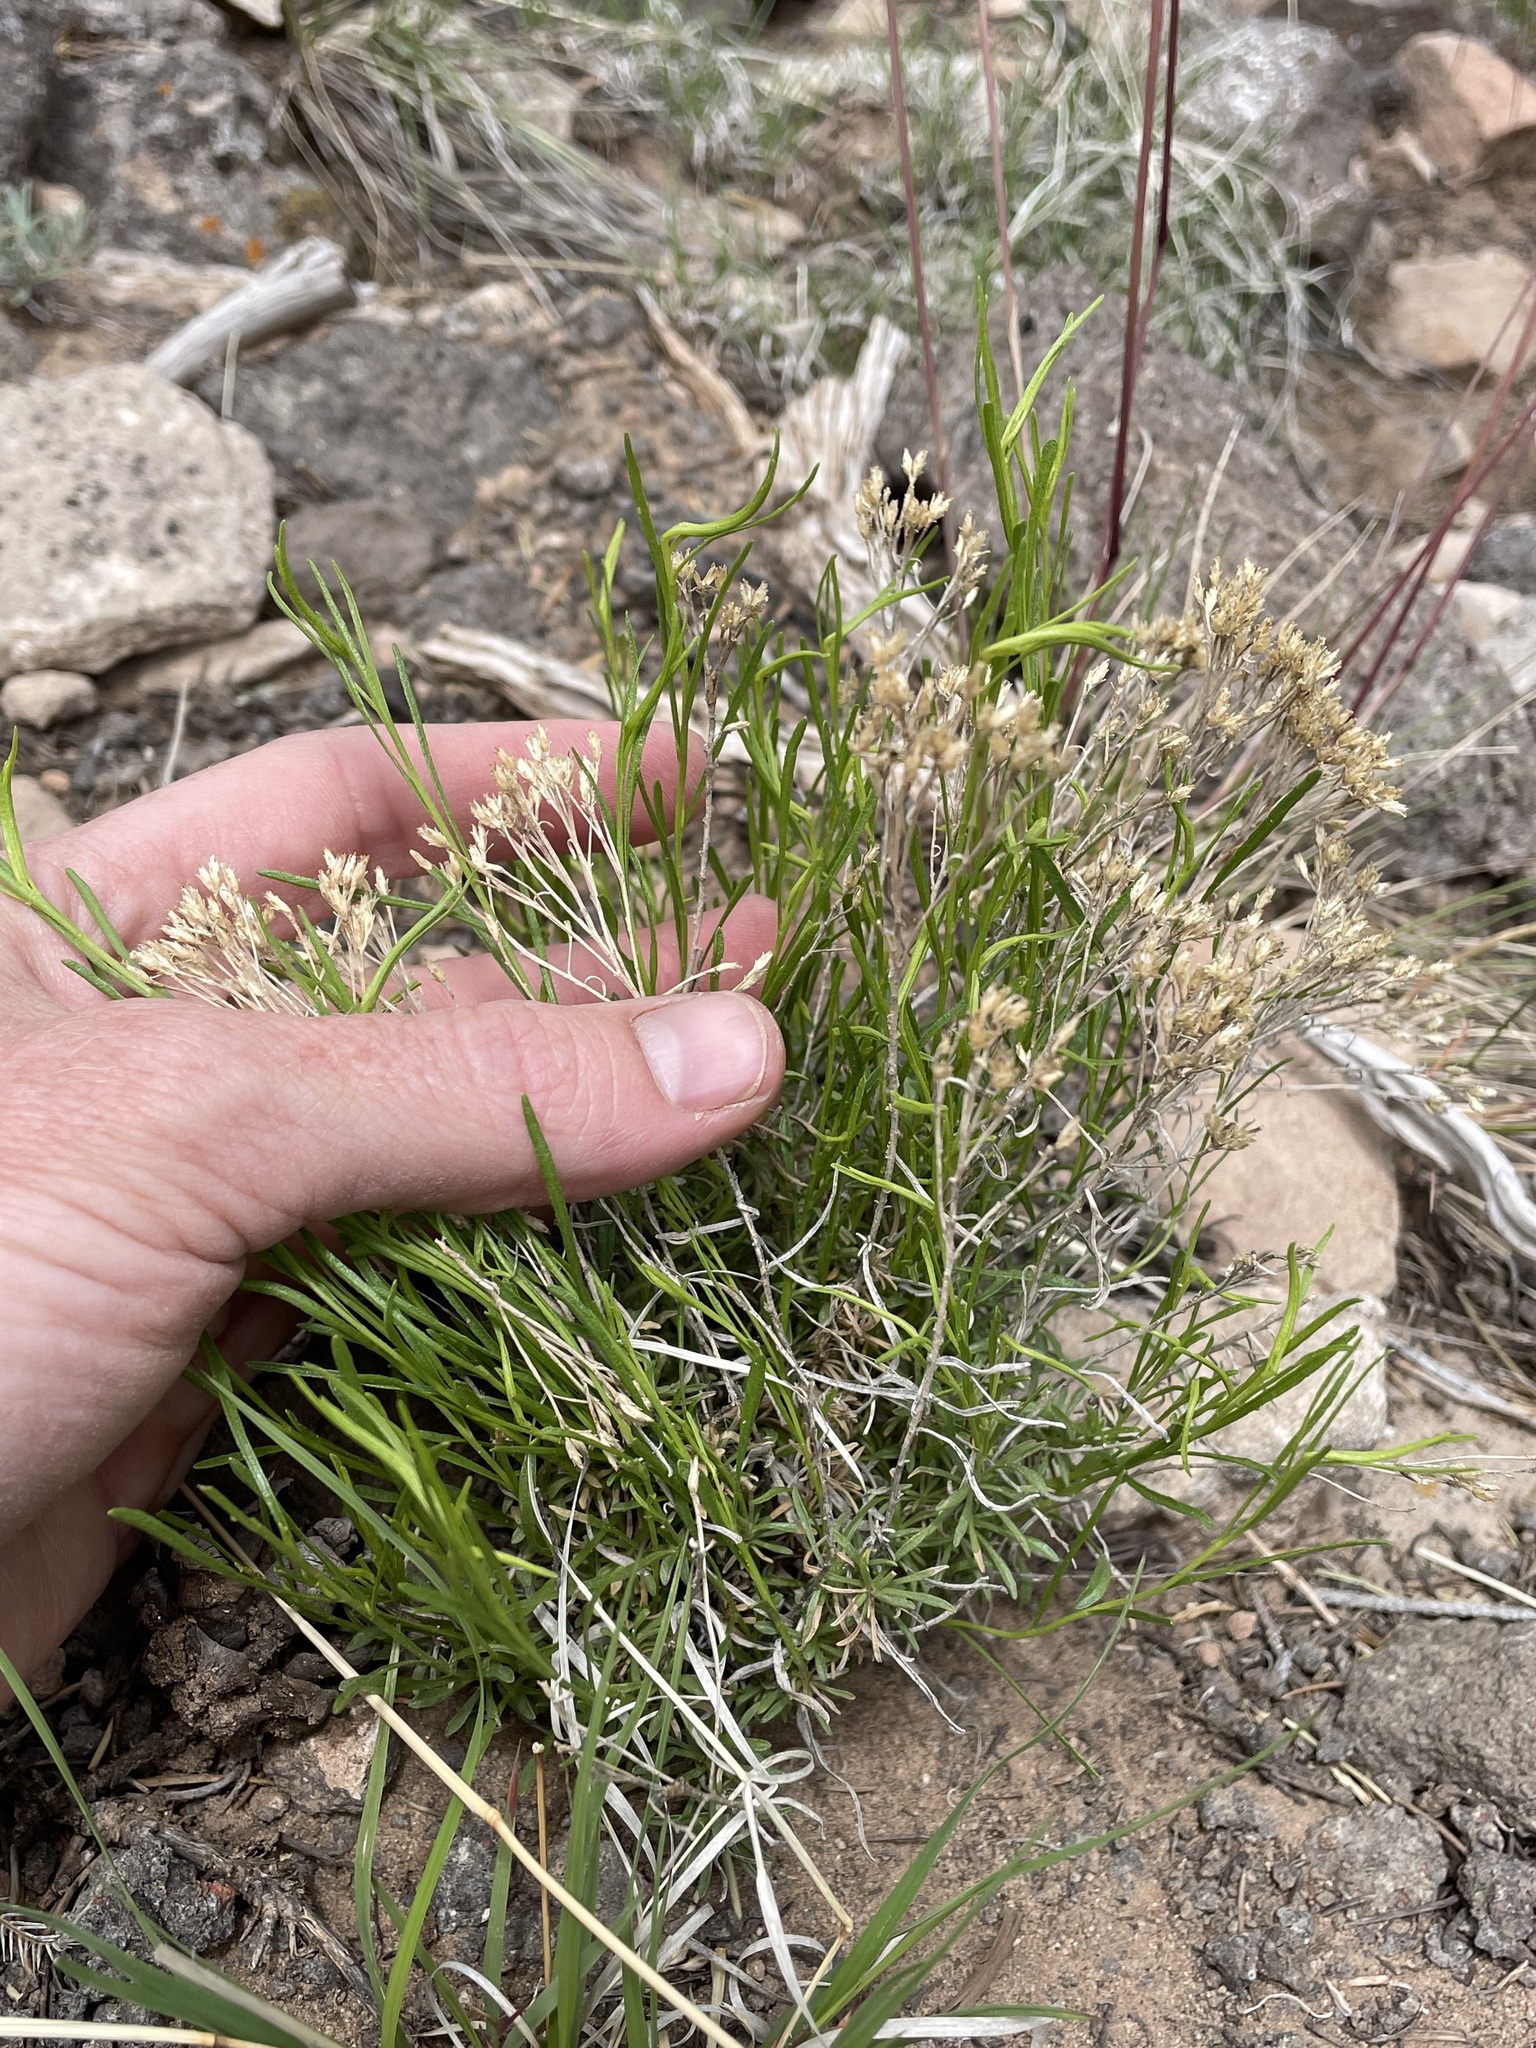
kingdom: Plantae
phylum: Tracheophyta
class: Magnoliopsida
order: Asterales
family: Asteraceae
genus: Gutierrezia
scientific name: Gutierrezia sarothrae
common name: Broom snakeweed
